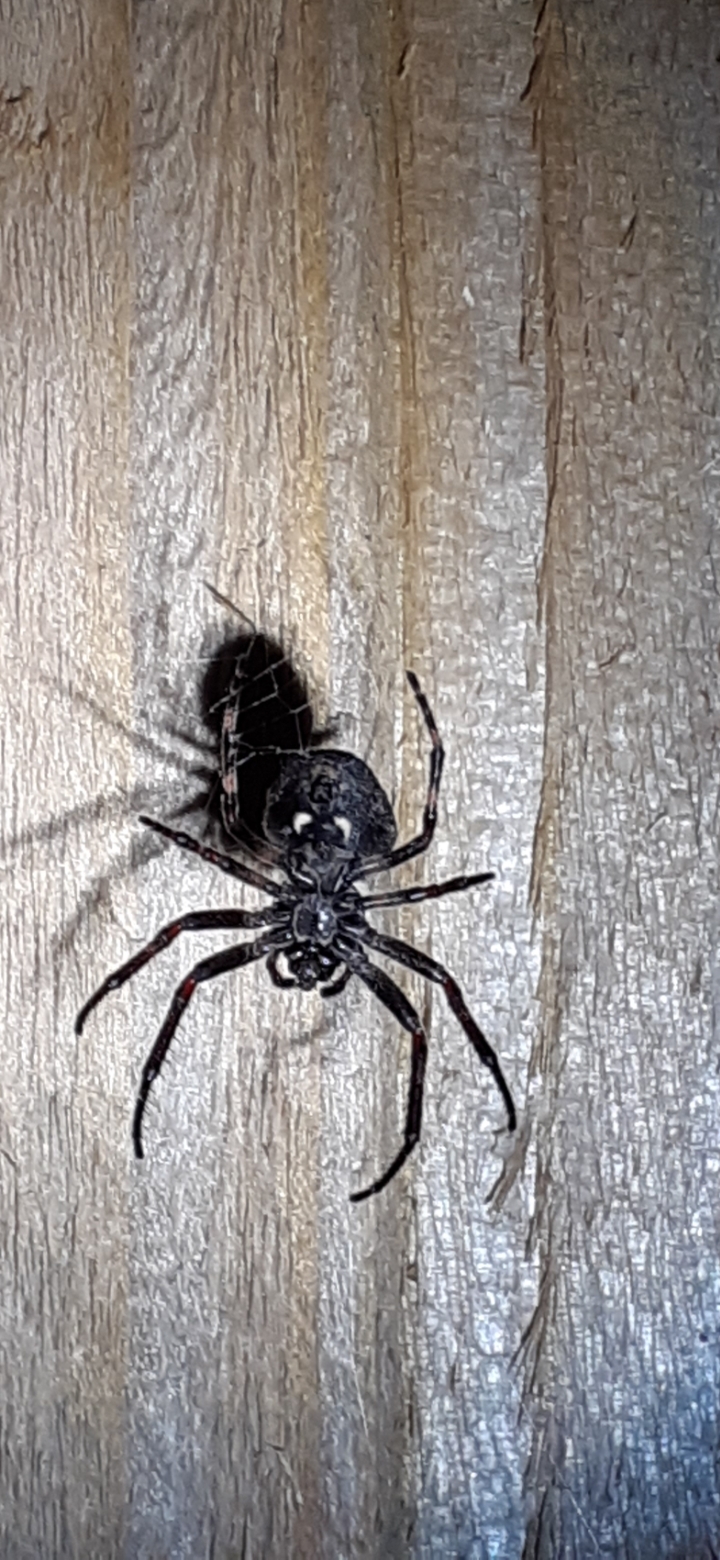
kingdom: Animalia
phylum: Arthropoda
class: Arachnida
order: Araneae
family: Araneidae
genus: Nuctenea
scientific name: Nuctenea umbratica
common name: Toad spider
